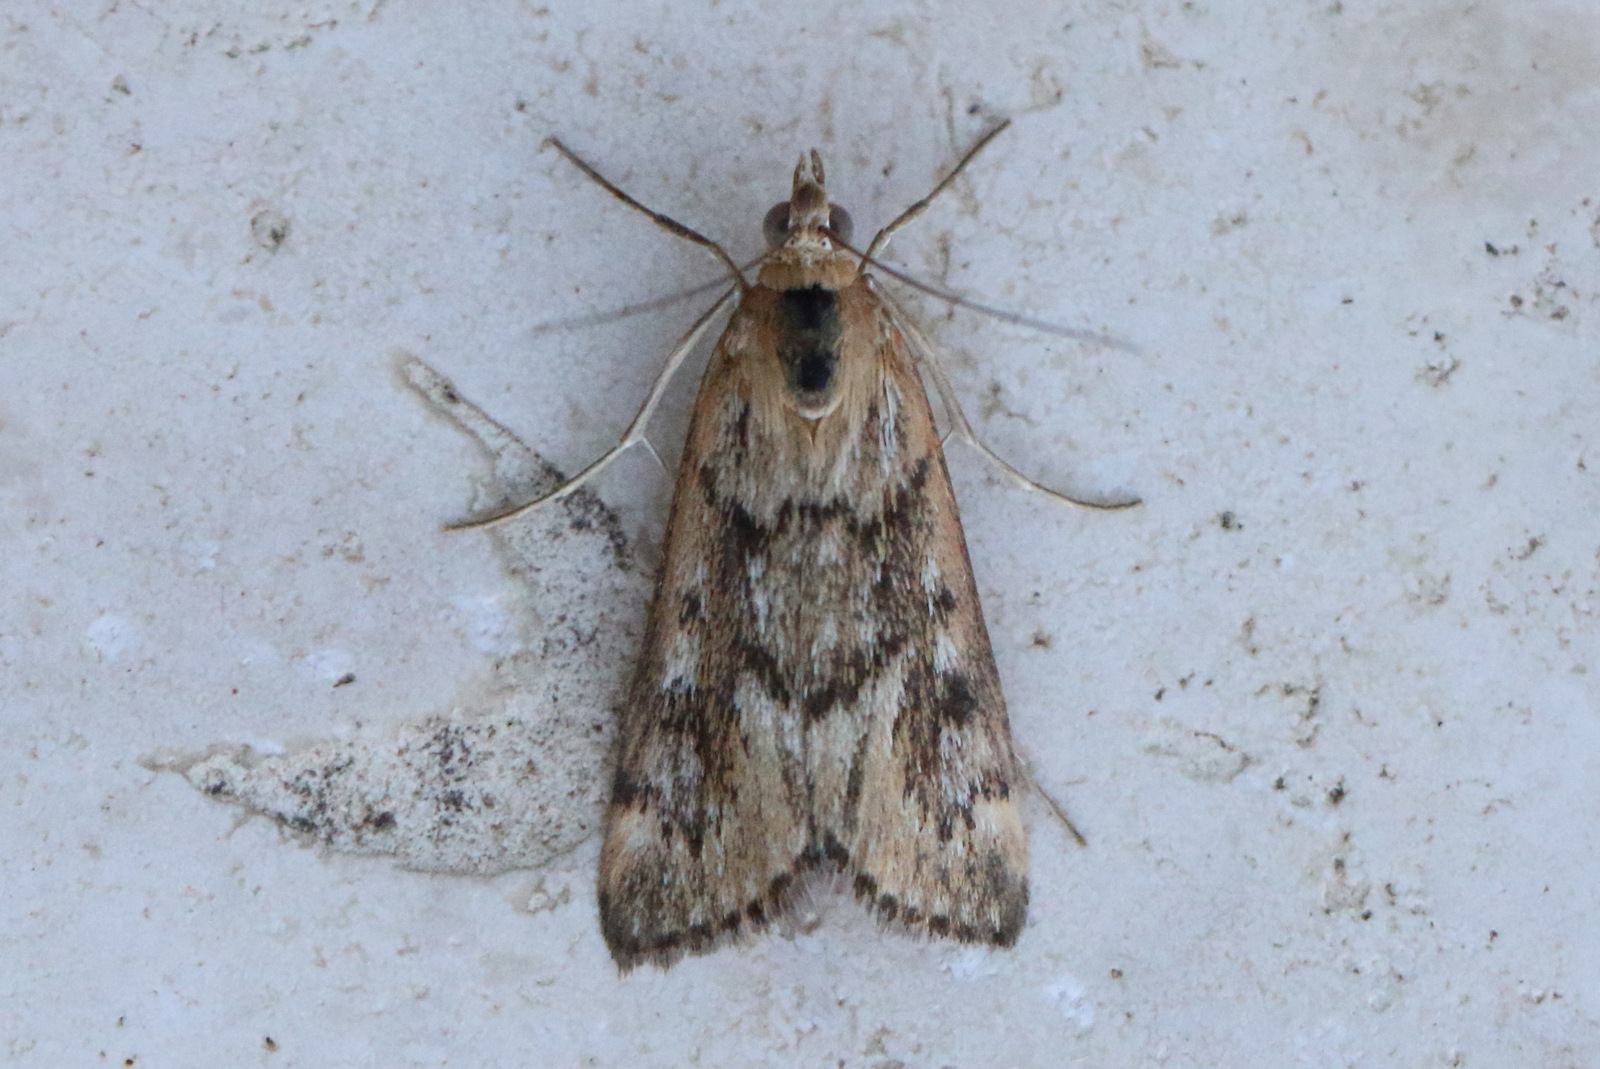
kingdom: Animalia
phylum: Arthropoda
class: Insecta
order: Lepidoptera
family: Crambidae
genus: Achyra
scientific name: Achyra affinitalis
